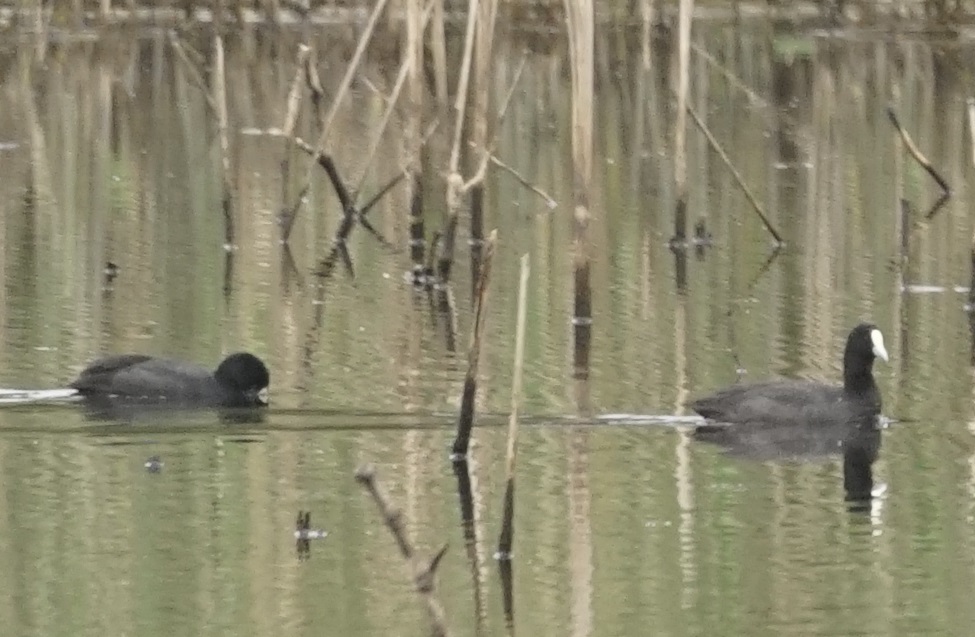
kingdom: Animalia
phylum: Chordata
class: Aves
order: Gruiformes
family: Rallidae
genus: Fulica
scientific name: Fulica atra
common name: Eurasian coot
